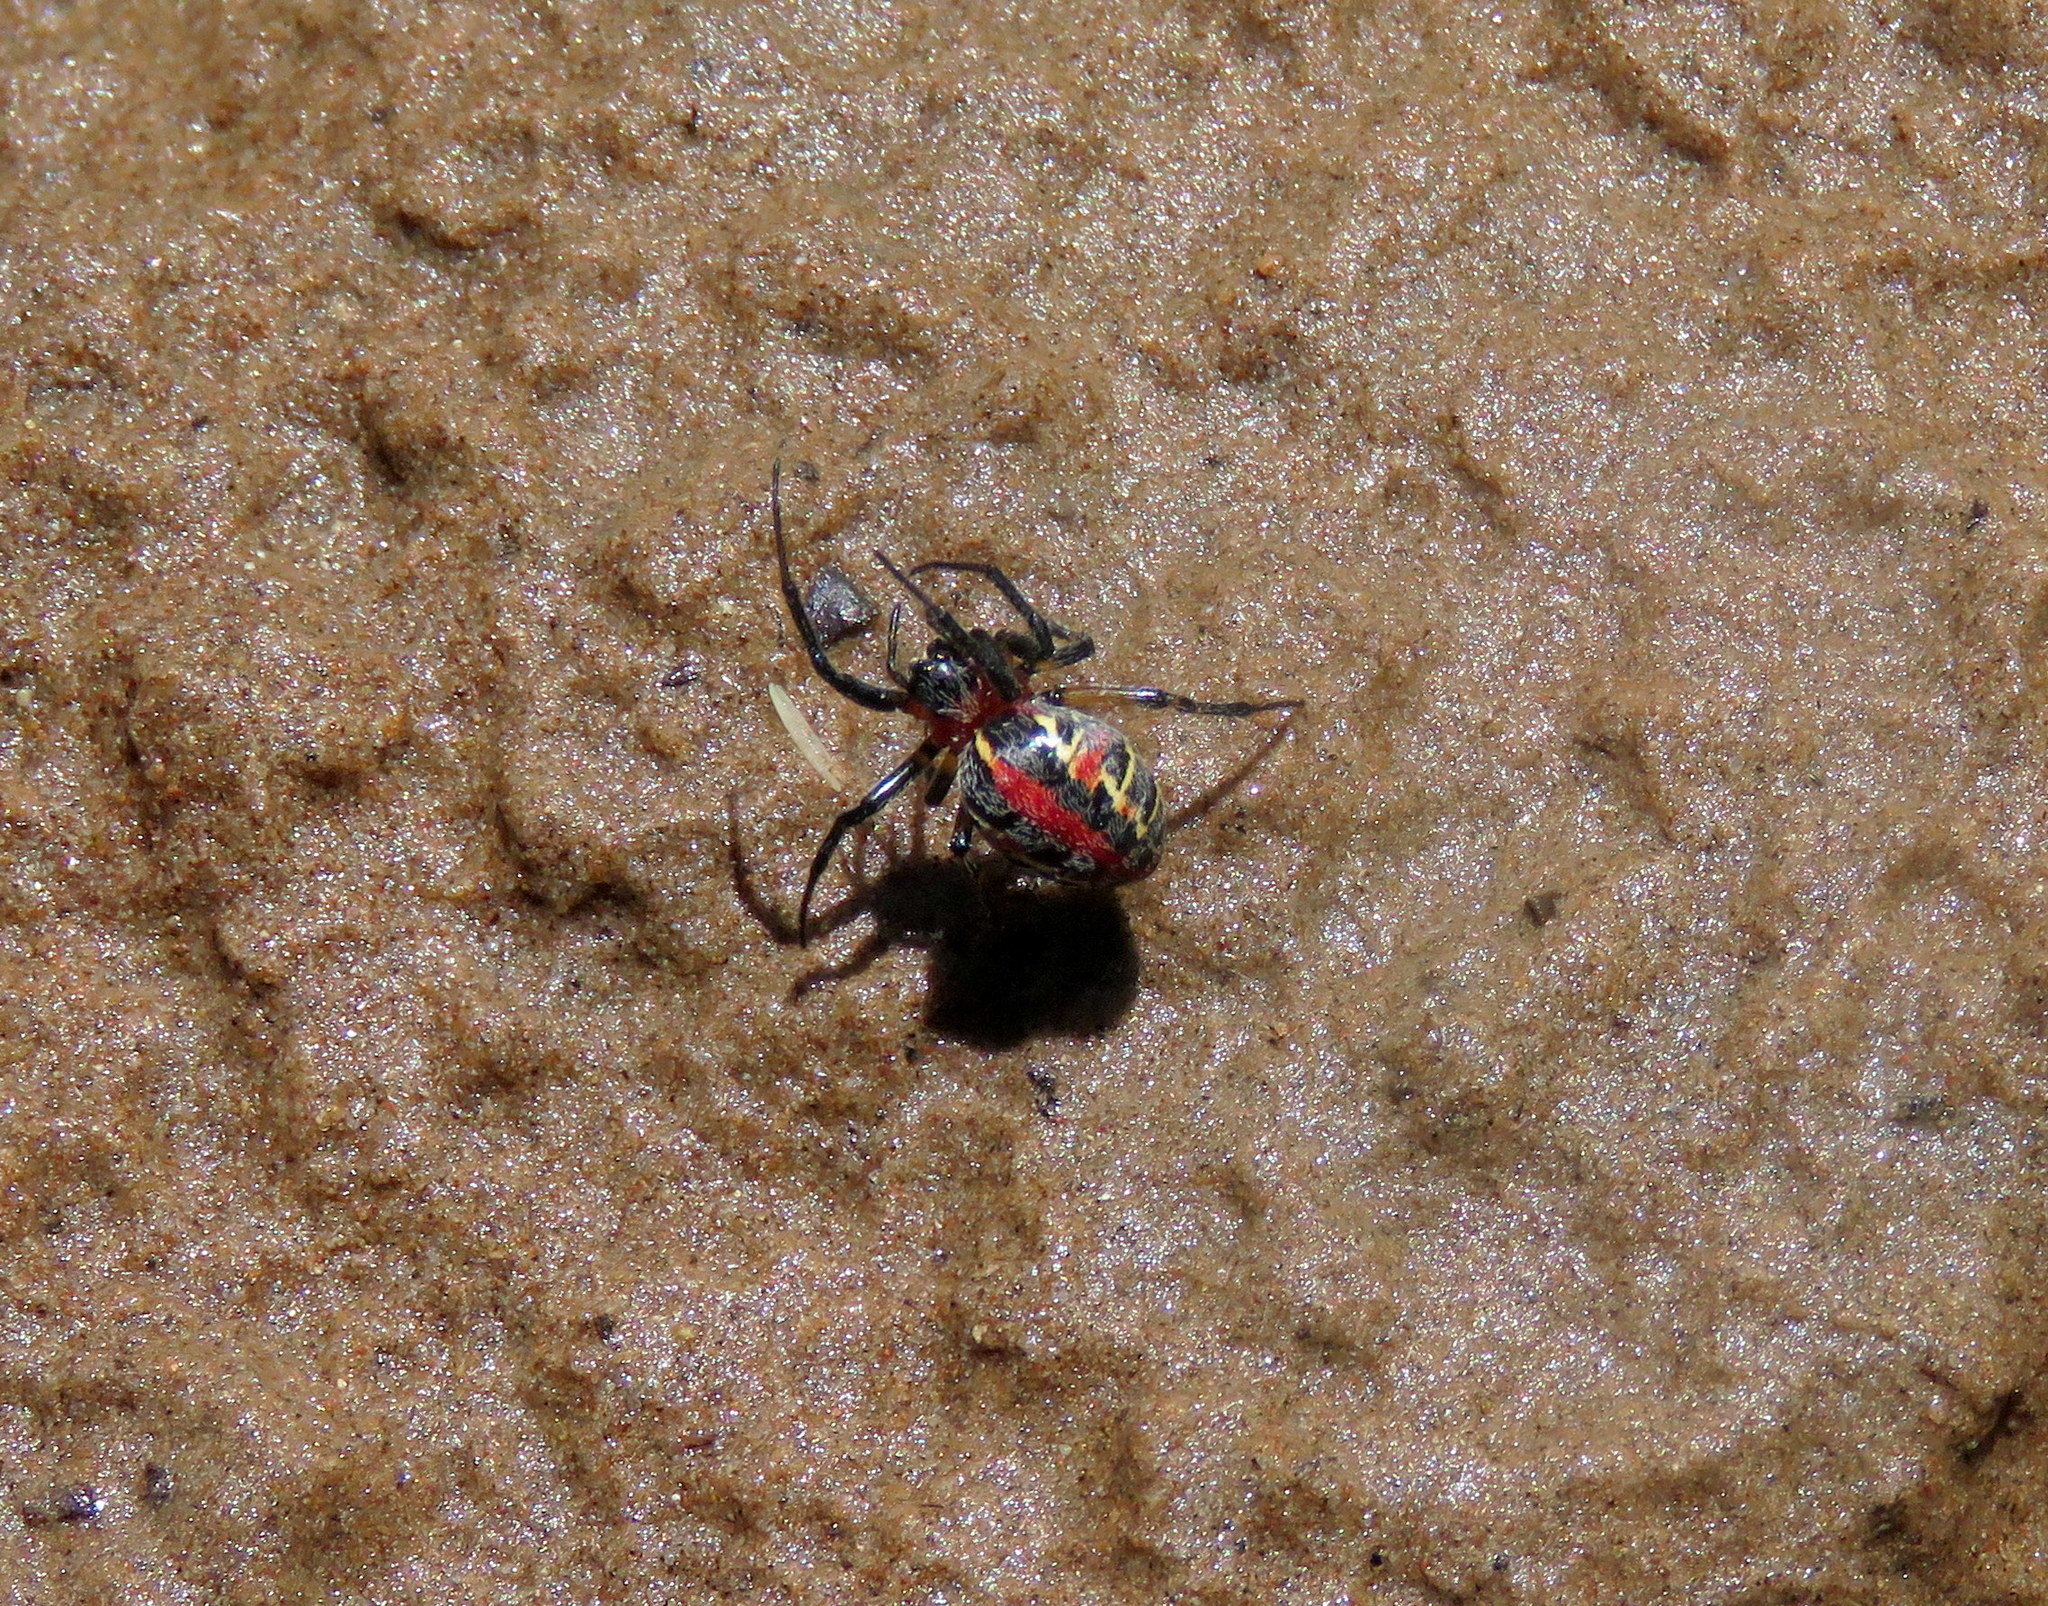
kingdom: Animalia
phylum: Arthropoda
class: Arachnida
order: Araneae
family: Araneidae
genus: Alpaida
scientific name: Alpaida versicolor
